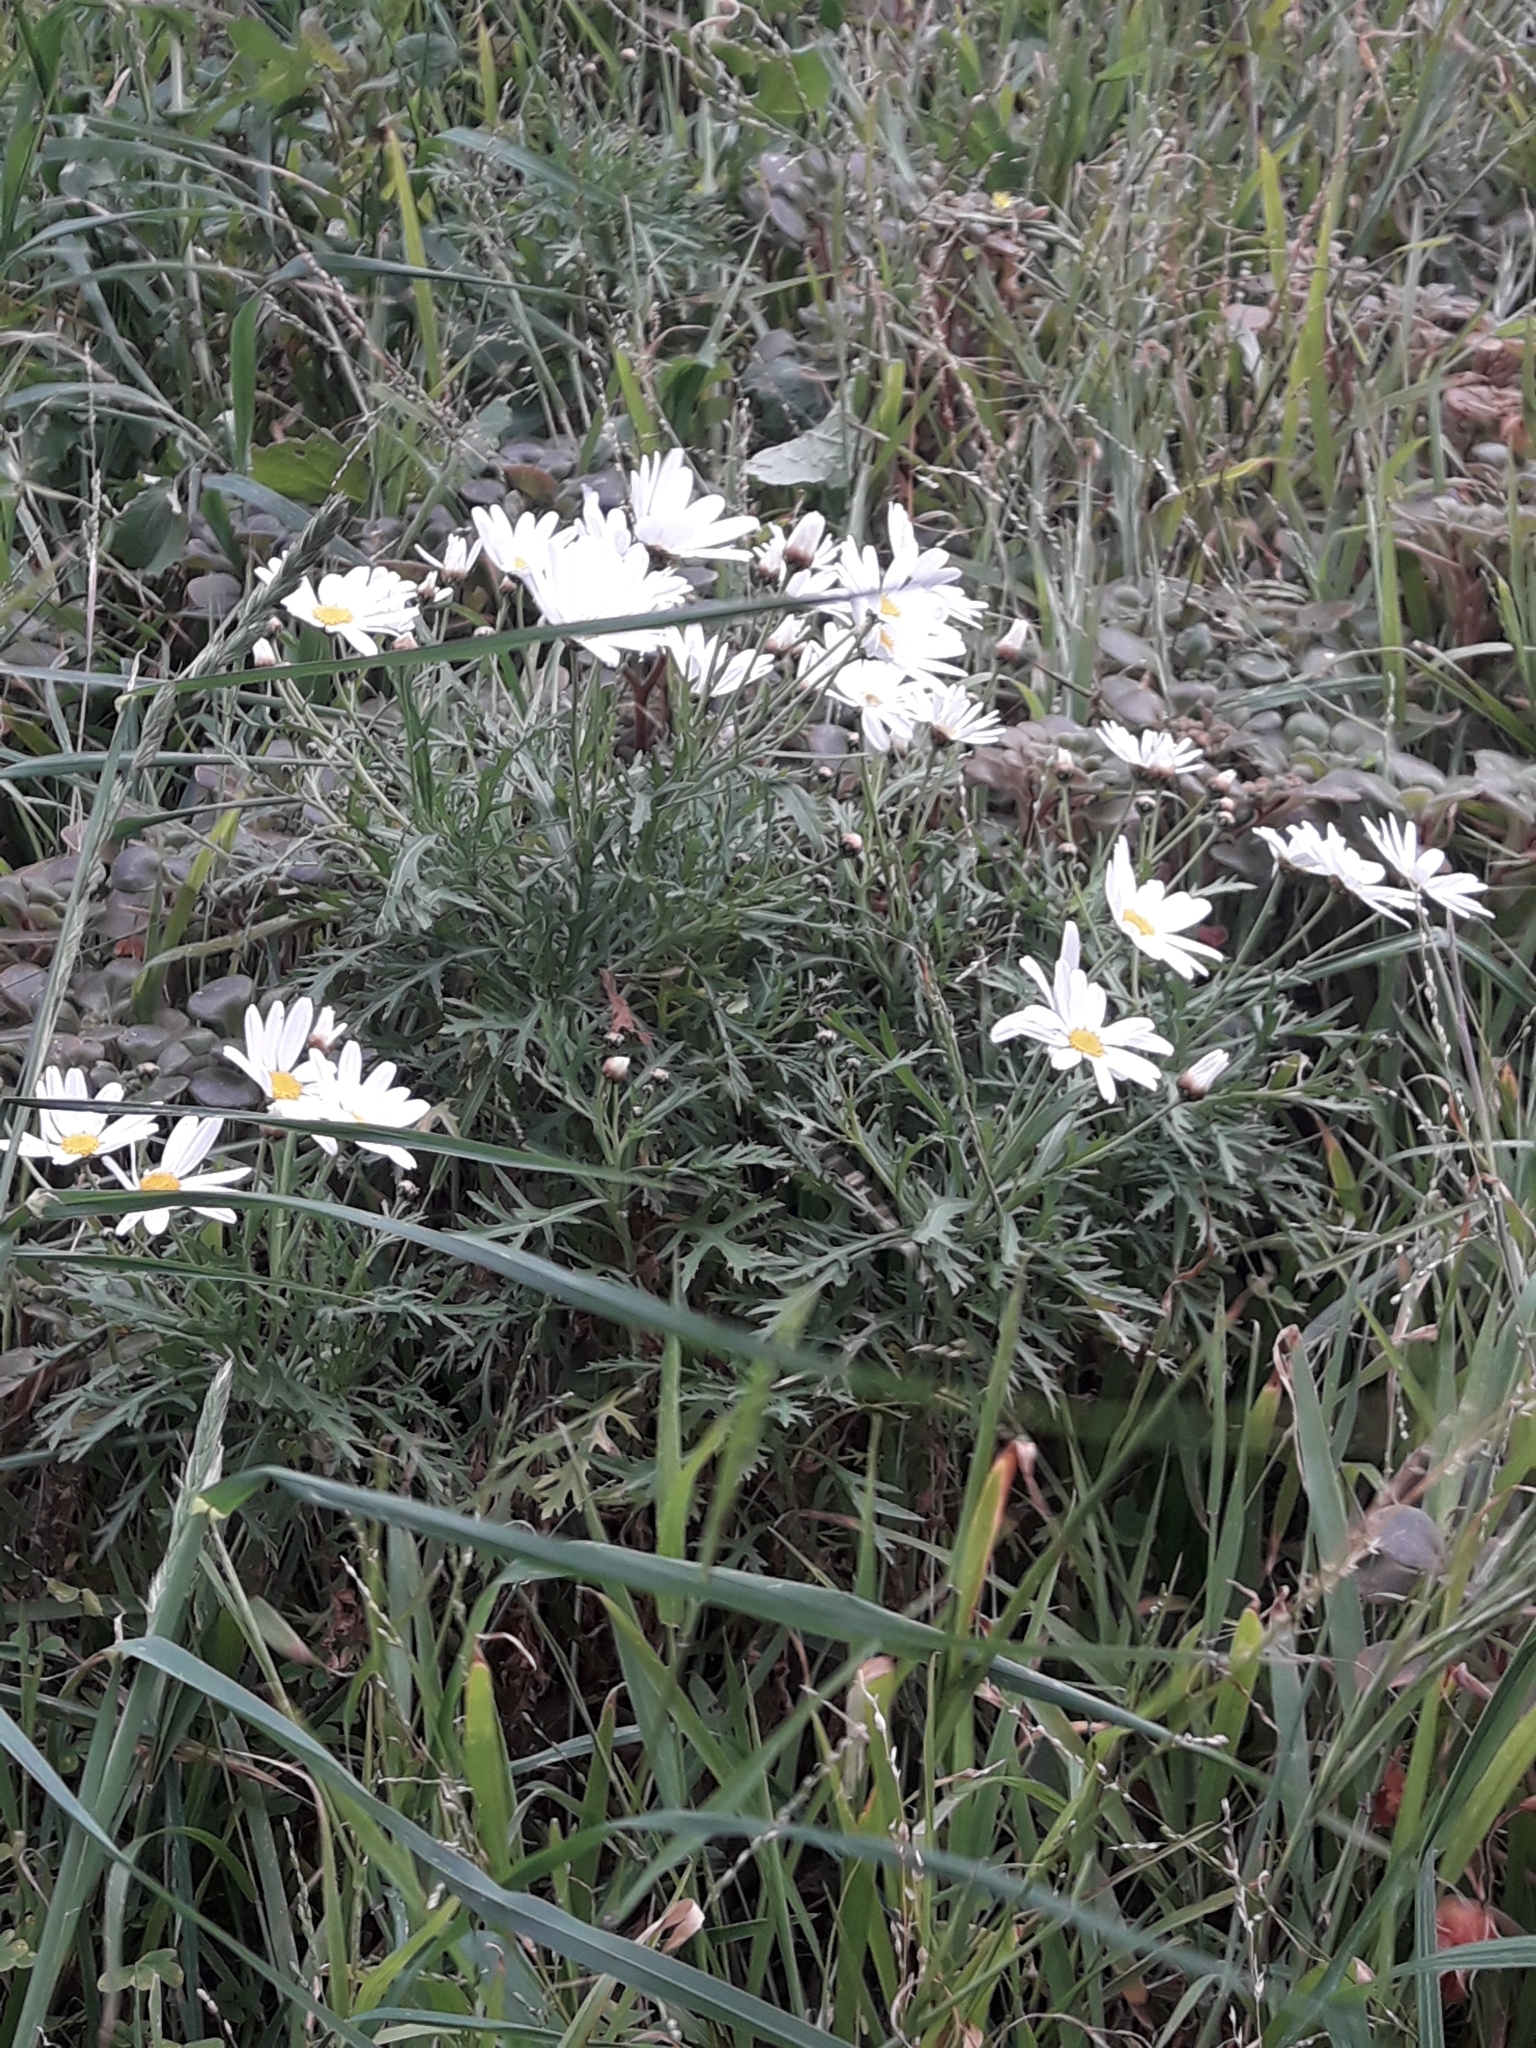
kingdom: Plantae
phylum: Tracheophyta
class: Magnoliopsida
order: Asterales
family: Asteraceae
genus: Argyranthemum
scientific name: Argyranthemum frutescens
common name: Paris daisy
